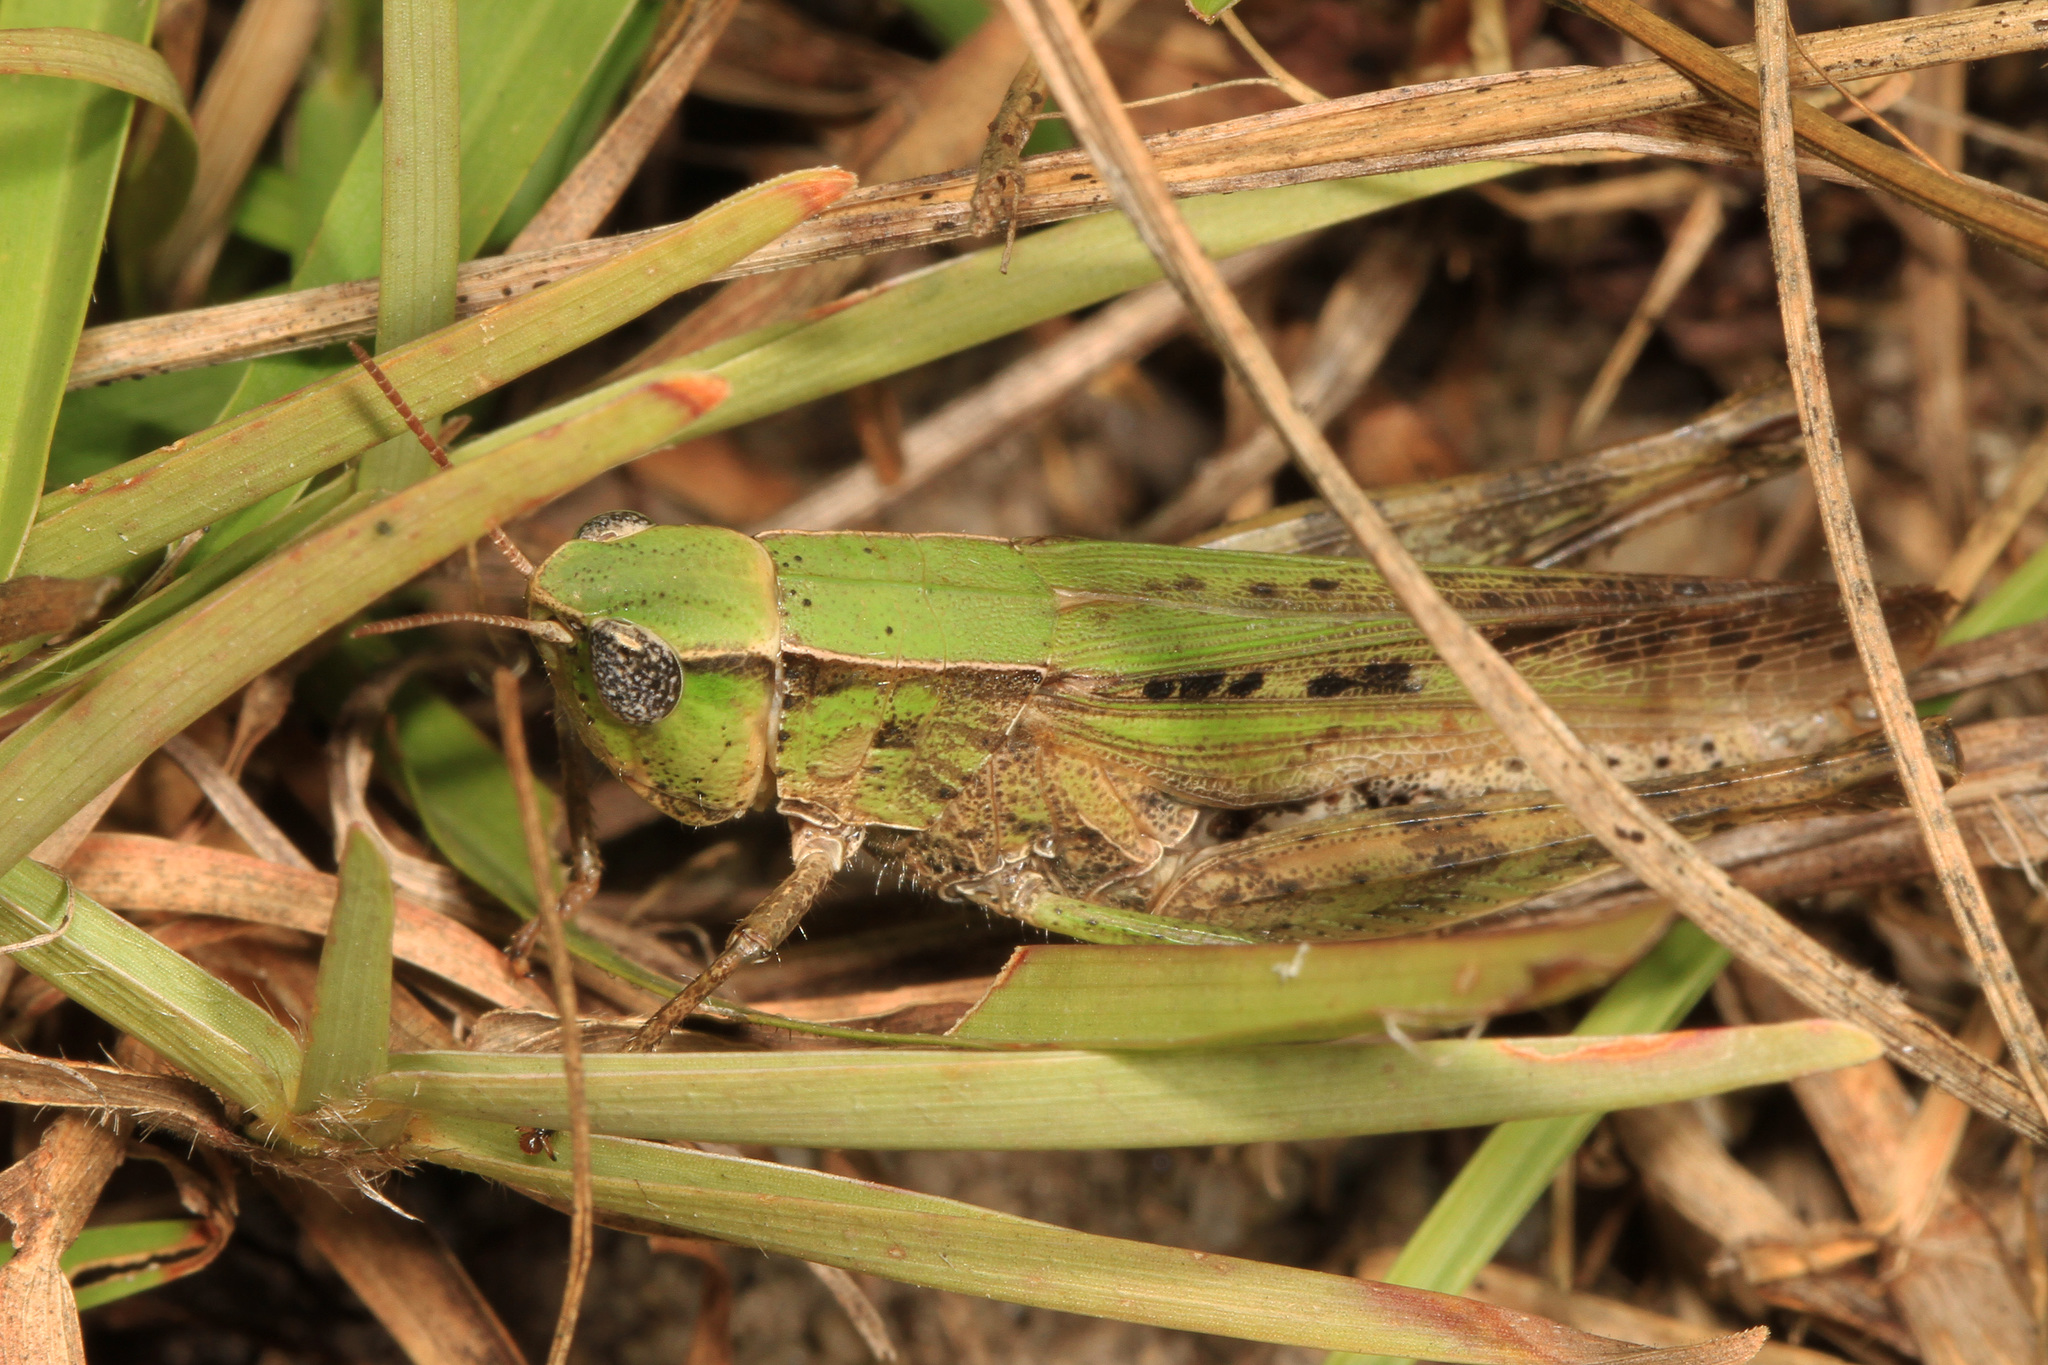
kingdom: Animalia
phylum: Arthropoda
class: Insecta
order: Orthoptera
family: Acrididae
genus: Dichromorpha
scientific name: Dichromorpha viridis
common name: Short-winged green grasshopper
